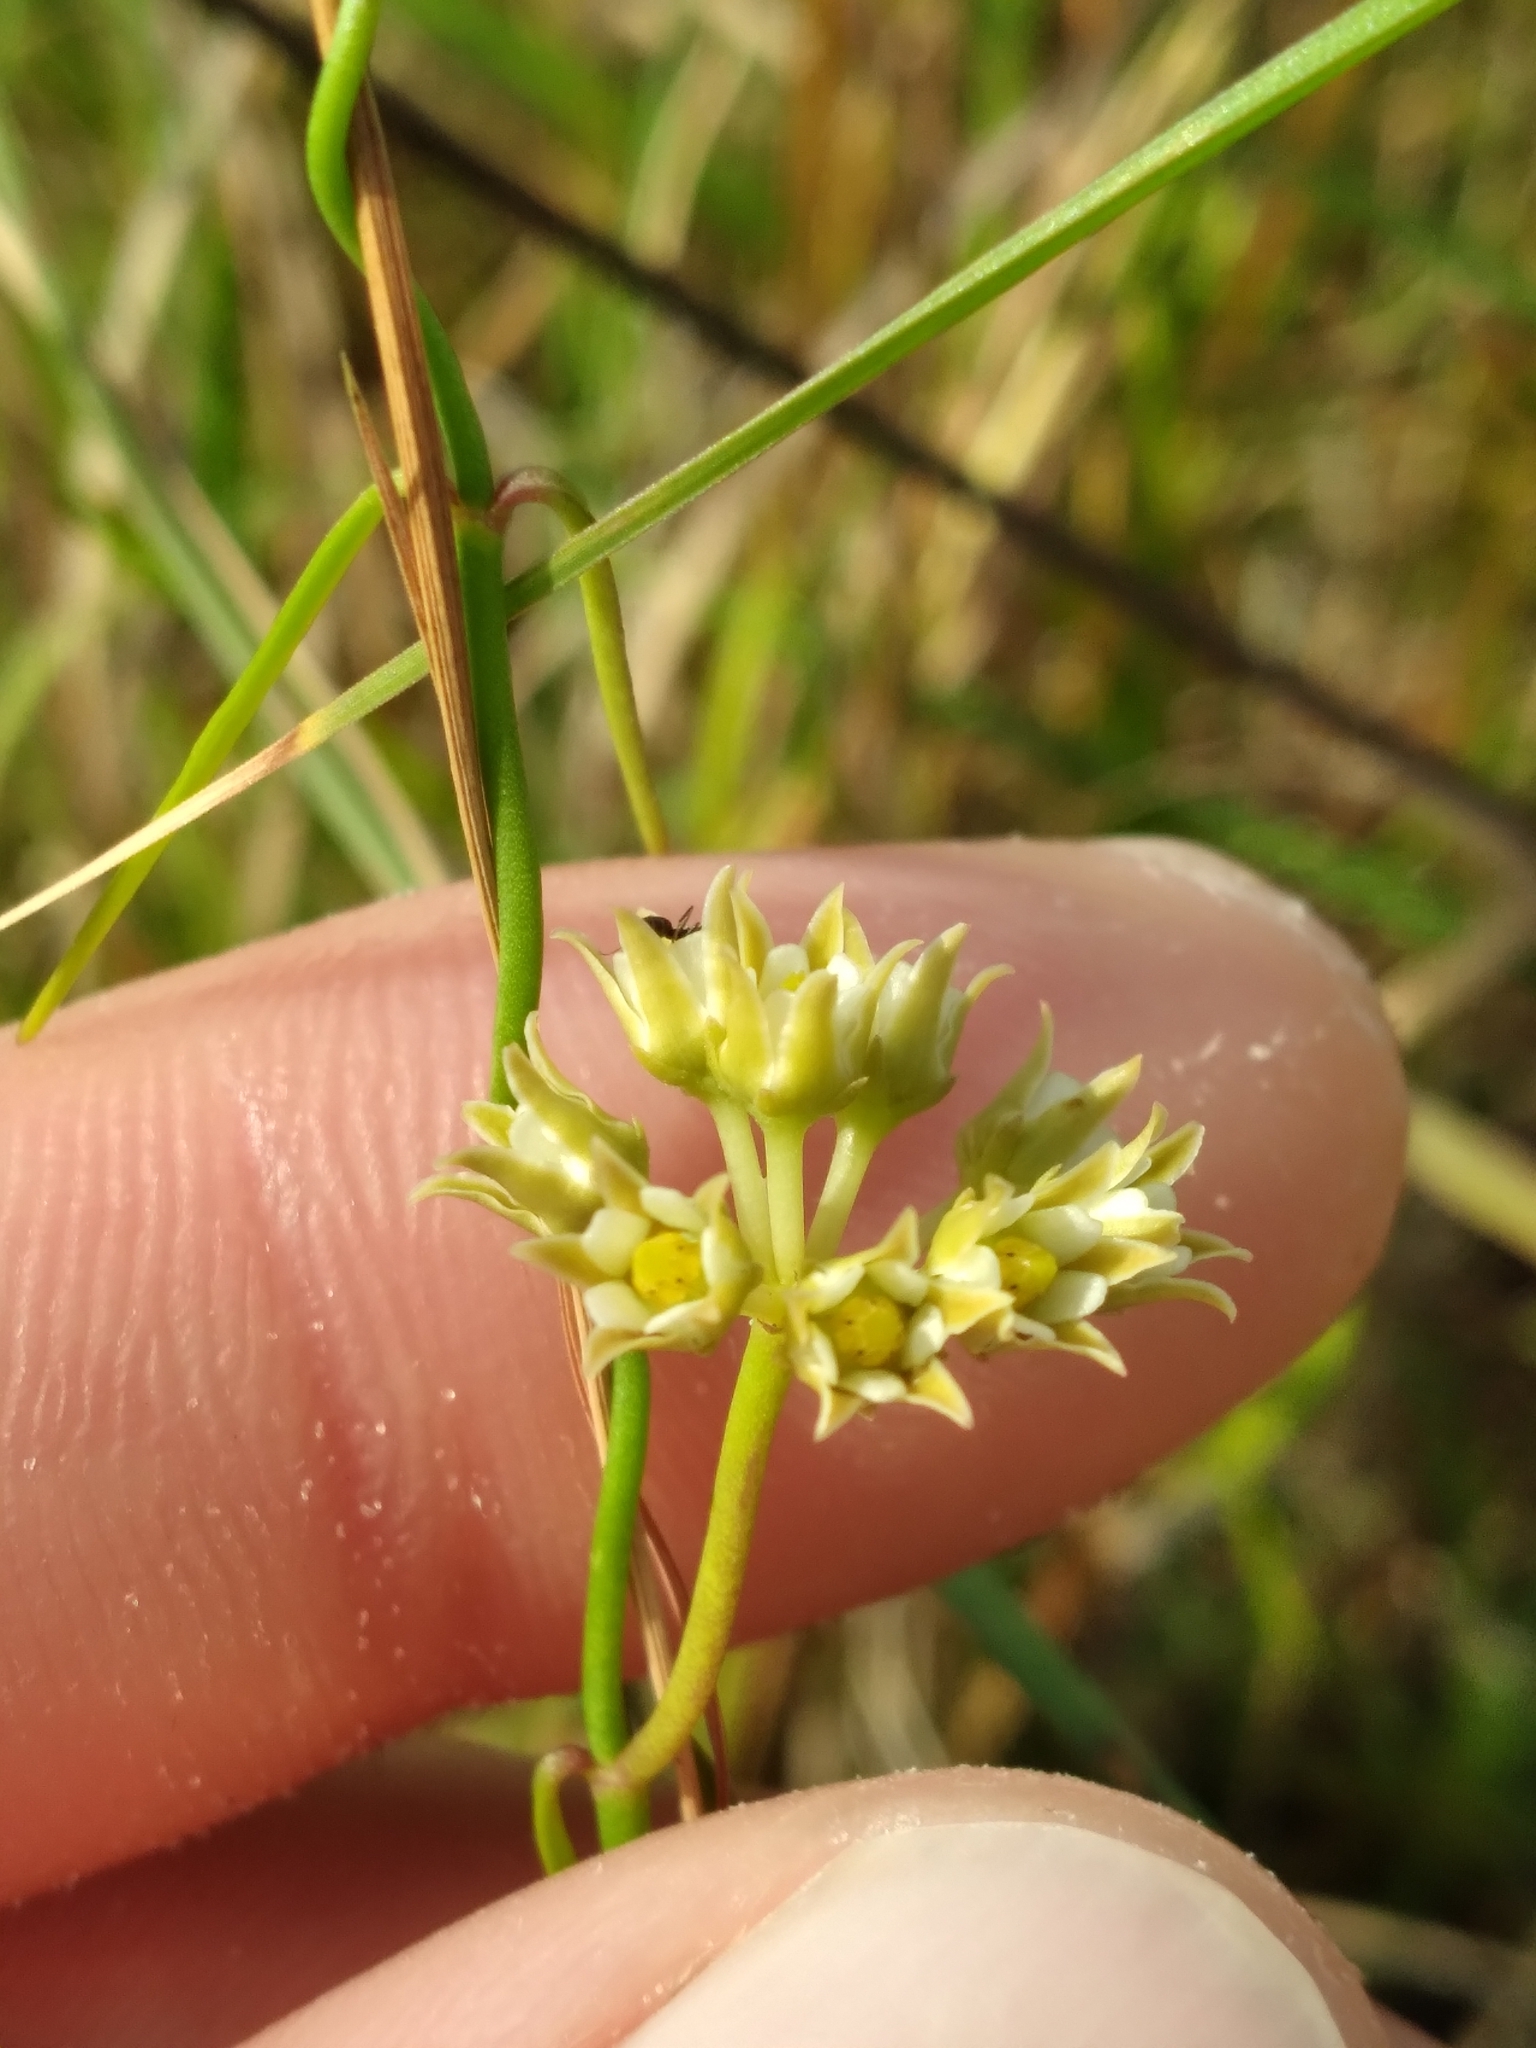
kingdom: Plantae
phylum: Tracheophyta
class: Magnoliopsida
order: Gentianales
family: Apocynaceae
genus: Pattalias
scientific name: Pattalias
